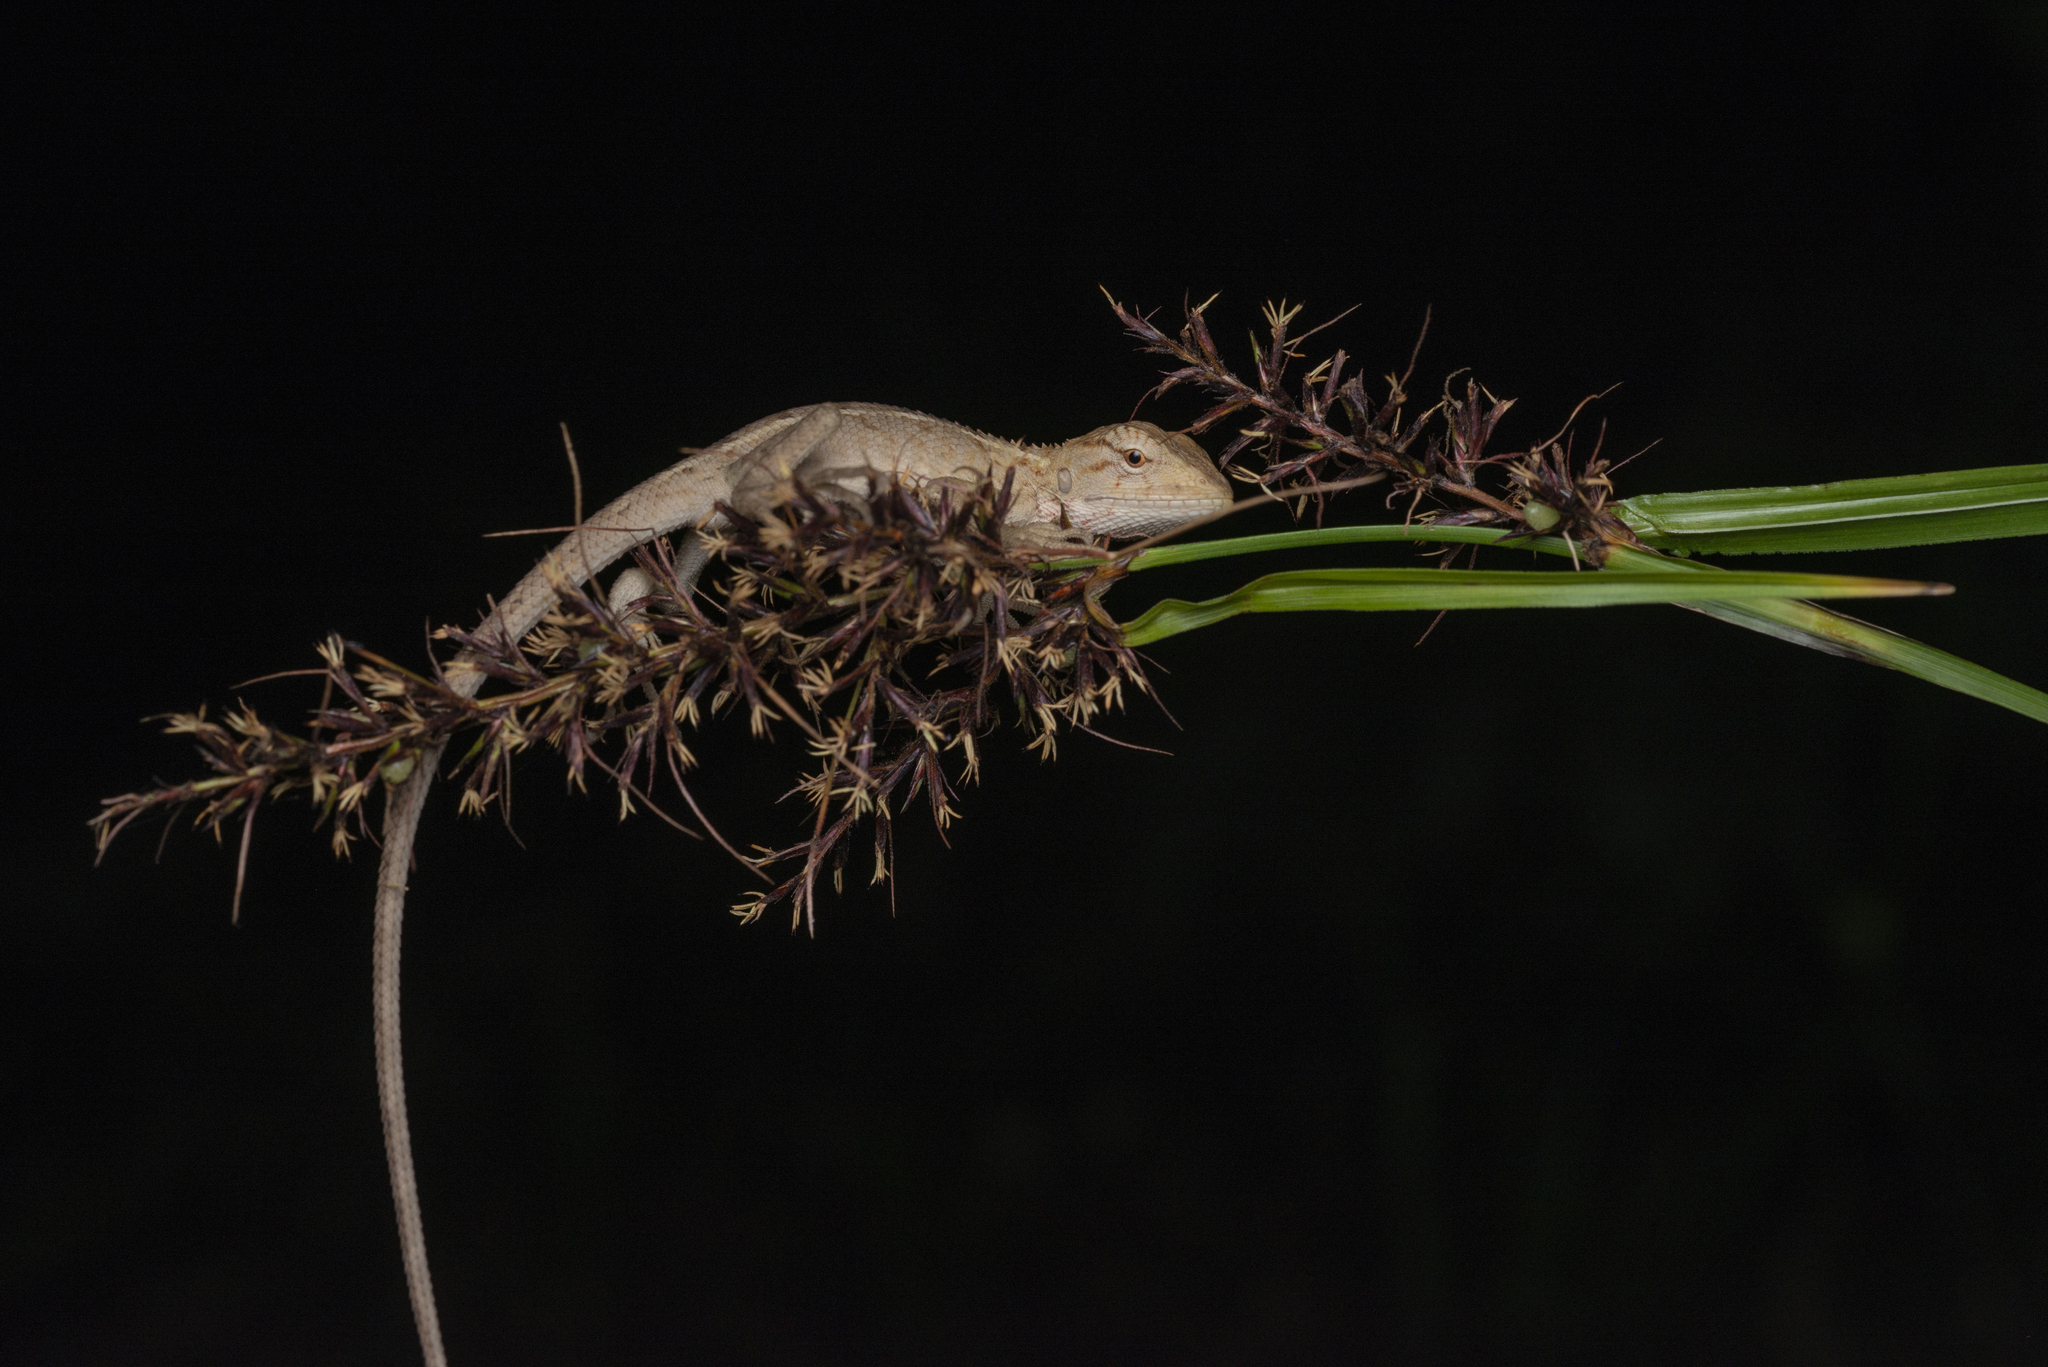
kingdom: Animalia
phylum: Chordata
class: Squamata
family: Agamidae
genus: Calotes
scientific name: Calotes versicolor
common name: Oriental garden lizard
